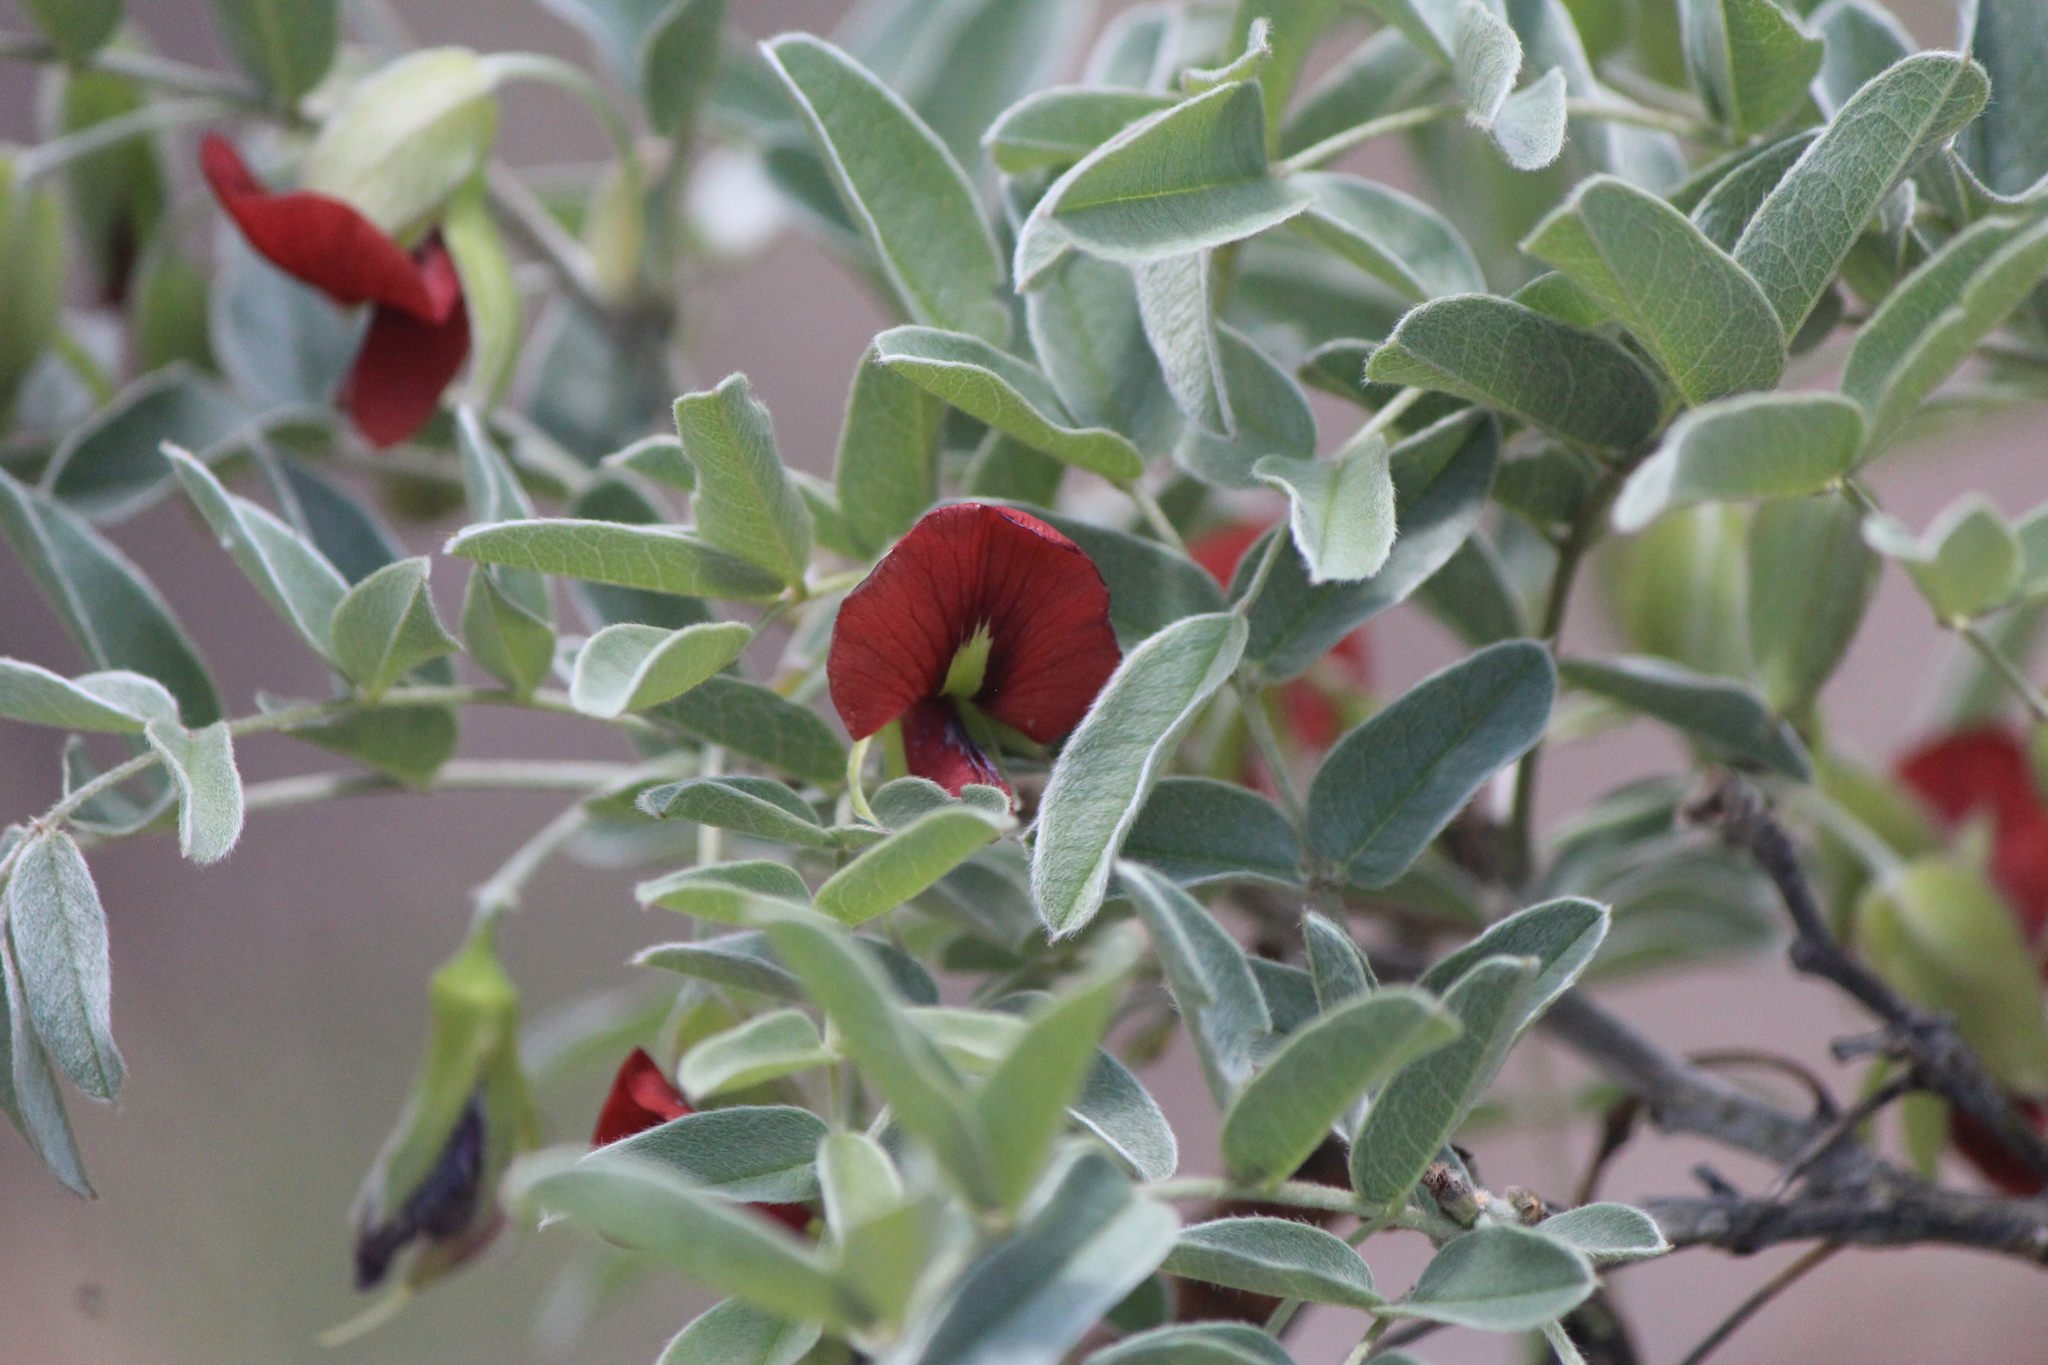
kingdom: Plantae
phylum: Tracheophyta
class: Magnoliopsida
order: Fabales
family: Fabaceae
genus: Brongniartia
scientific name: Brongniartia parryi
